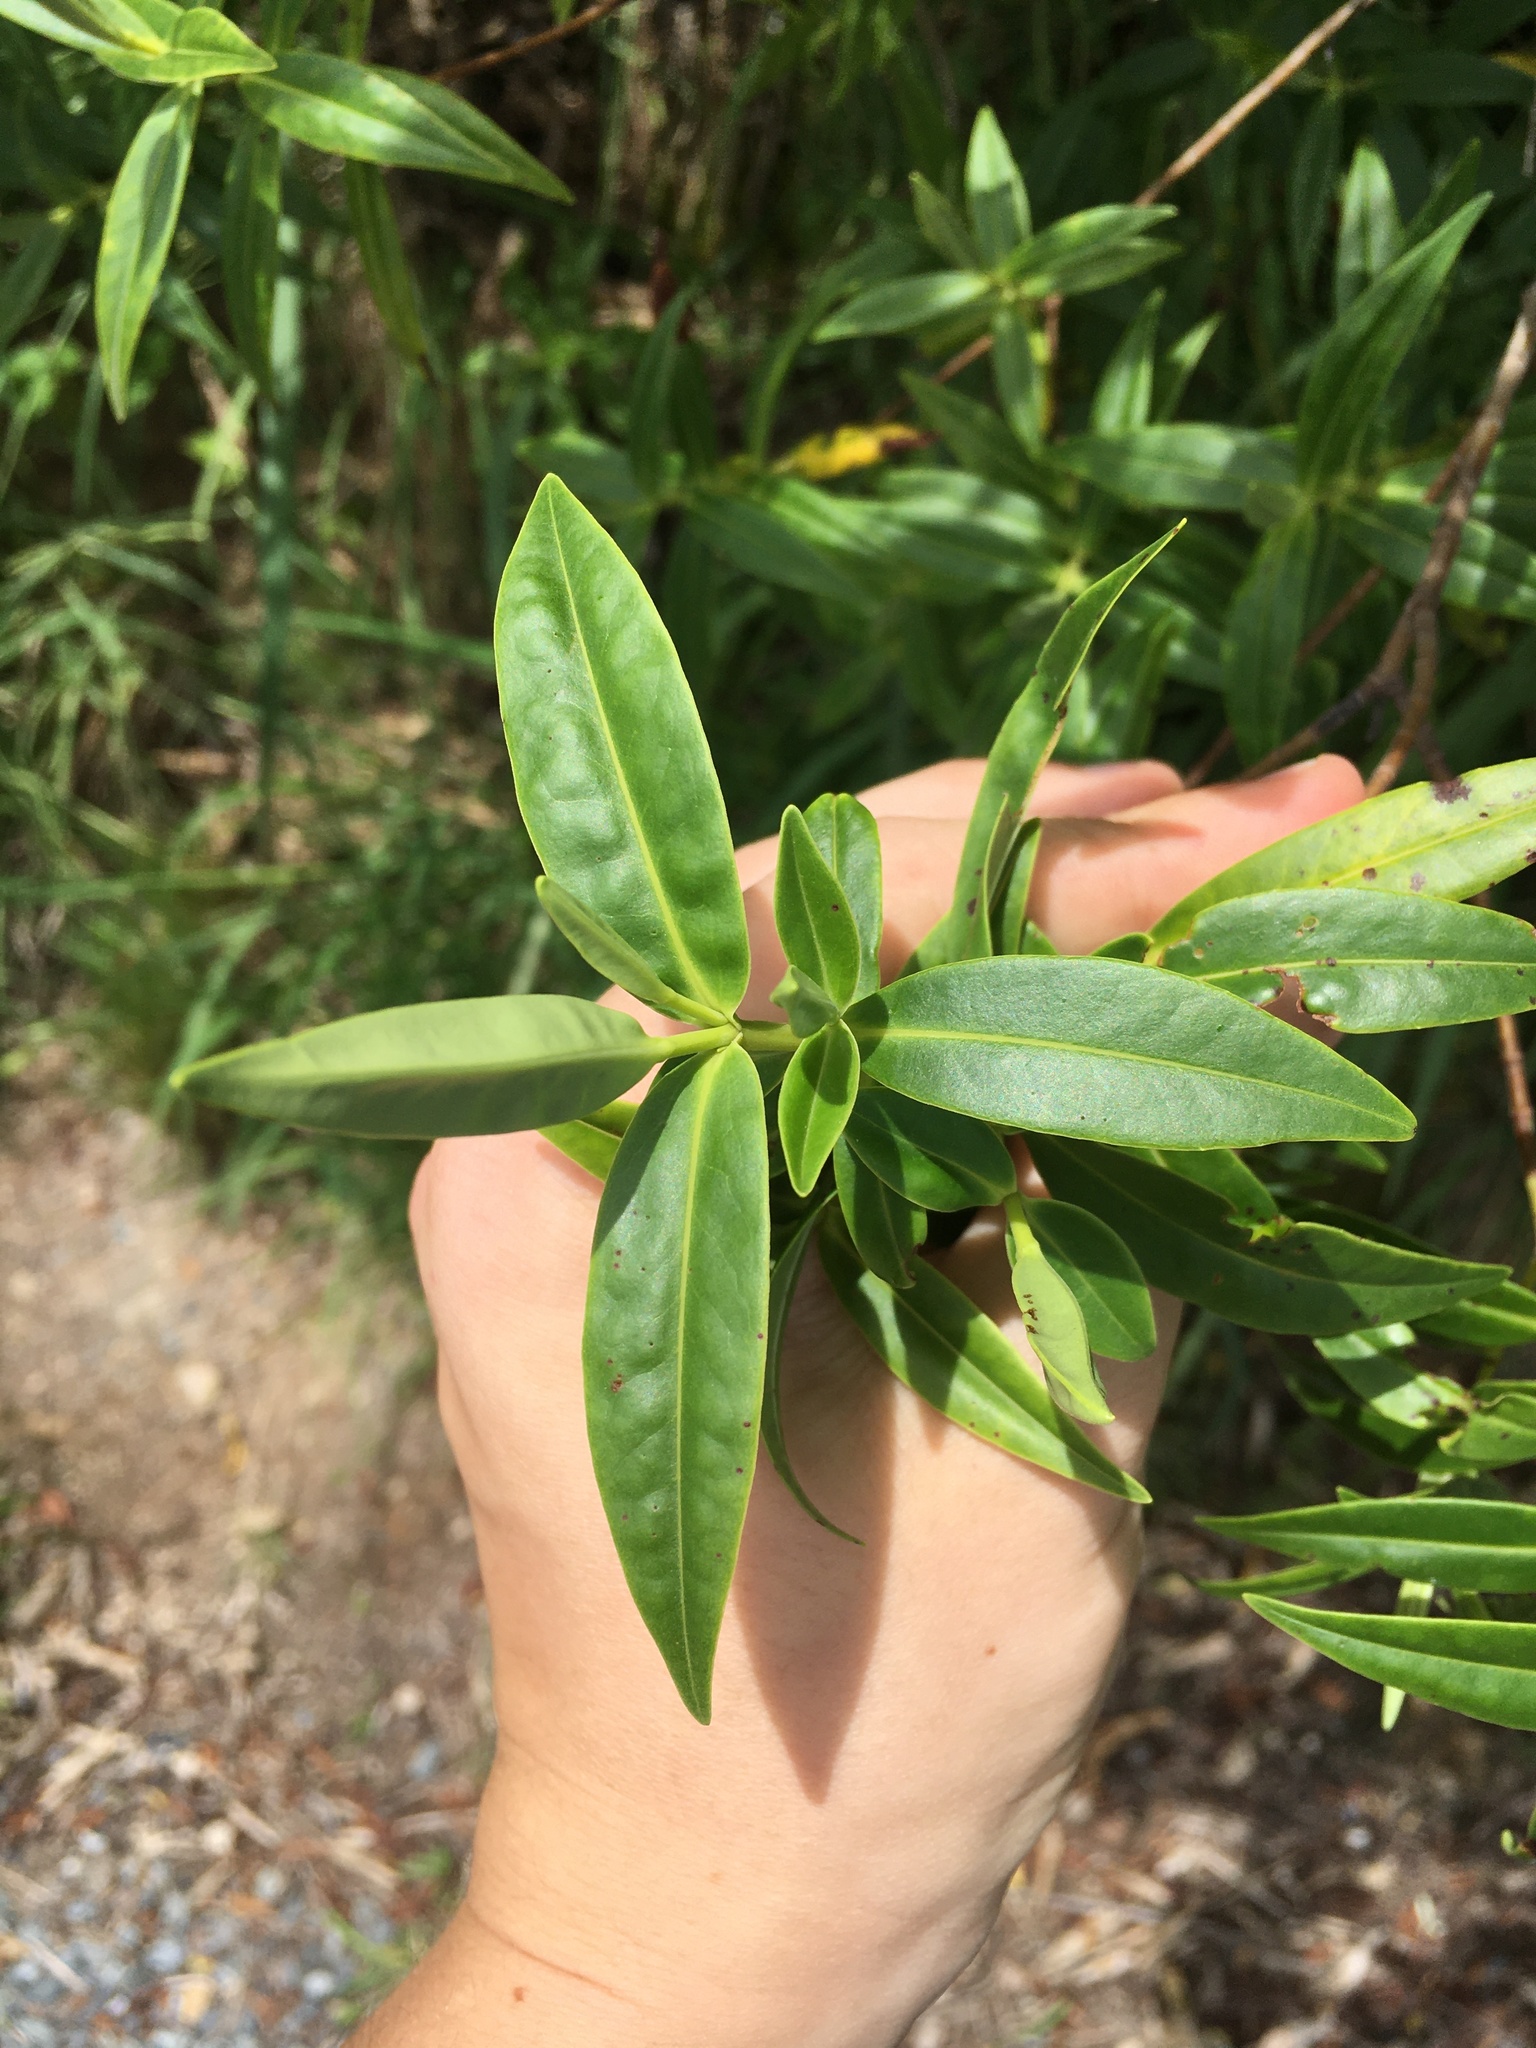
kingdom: Plantae
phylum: Tracheophyta
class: Magnoliopsida
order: Lamiales
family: Plantaginaceae
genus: Veronica
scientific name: Veronica stricta
